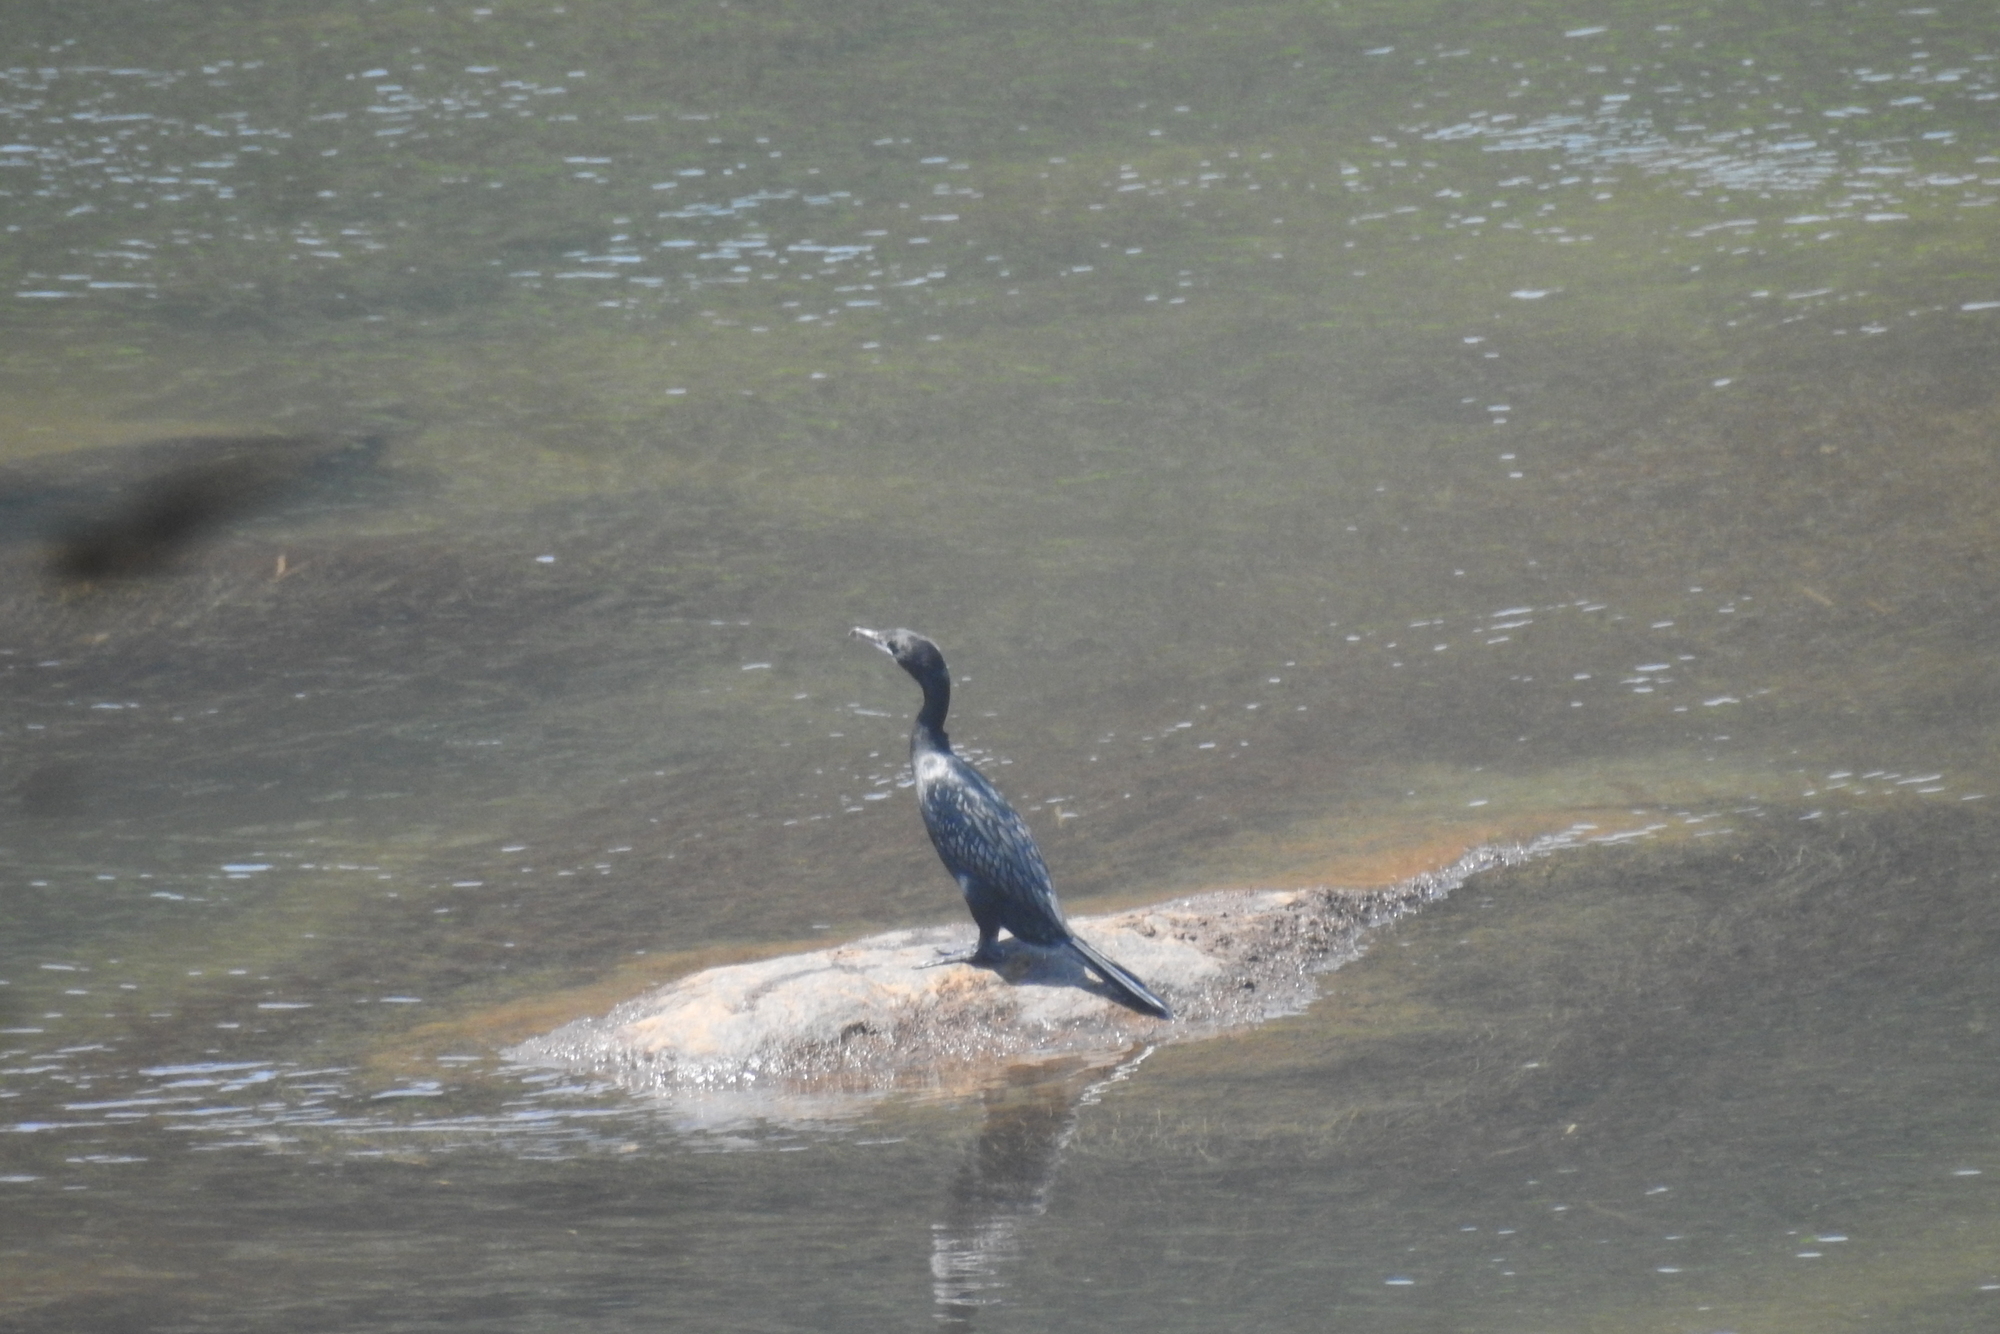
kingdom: Animalia
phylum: Chordata
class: Aves
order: Suliformes
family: Phalacrocoracidae
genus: Microcarbo
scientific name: Microcarbo niger
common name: Little cormorant
